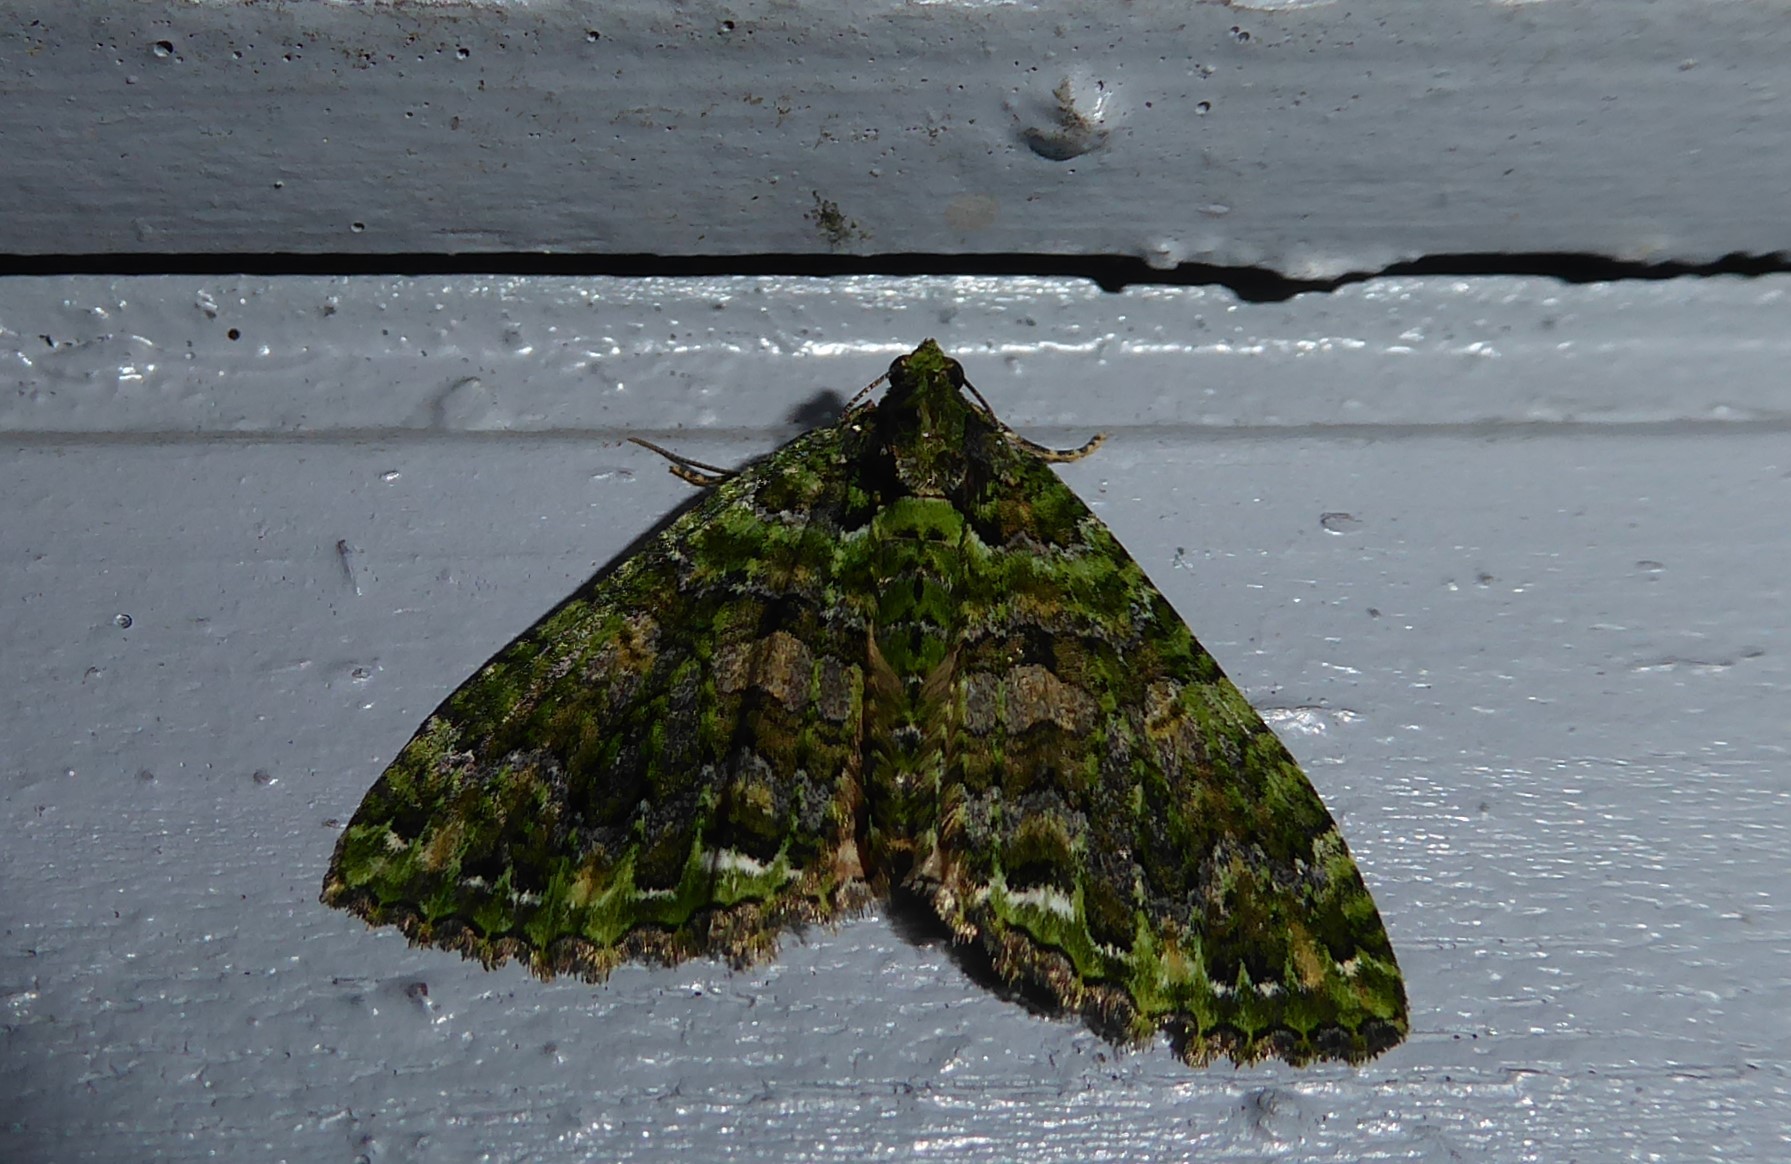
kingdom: Animalia
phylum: Arthropoda
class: Insecta
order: Lepidoptera
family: Geometridae
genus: Austrocidaria
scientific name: Austrocidaria similata
